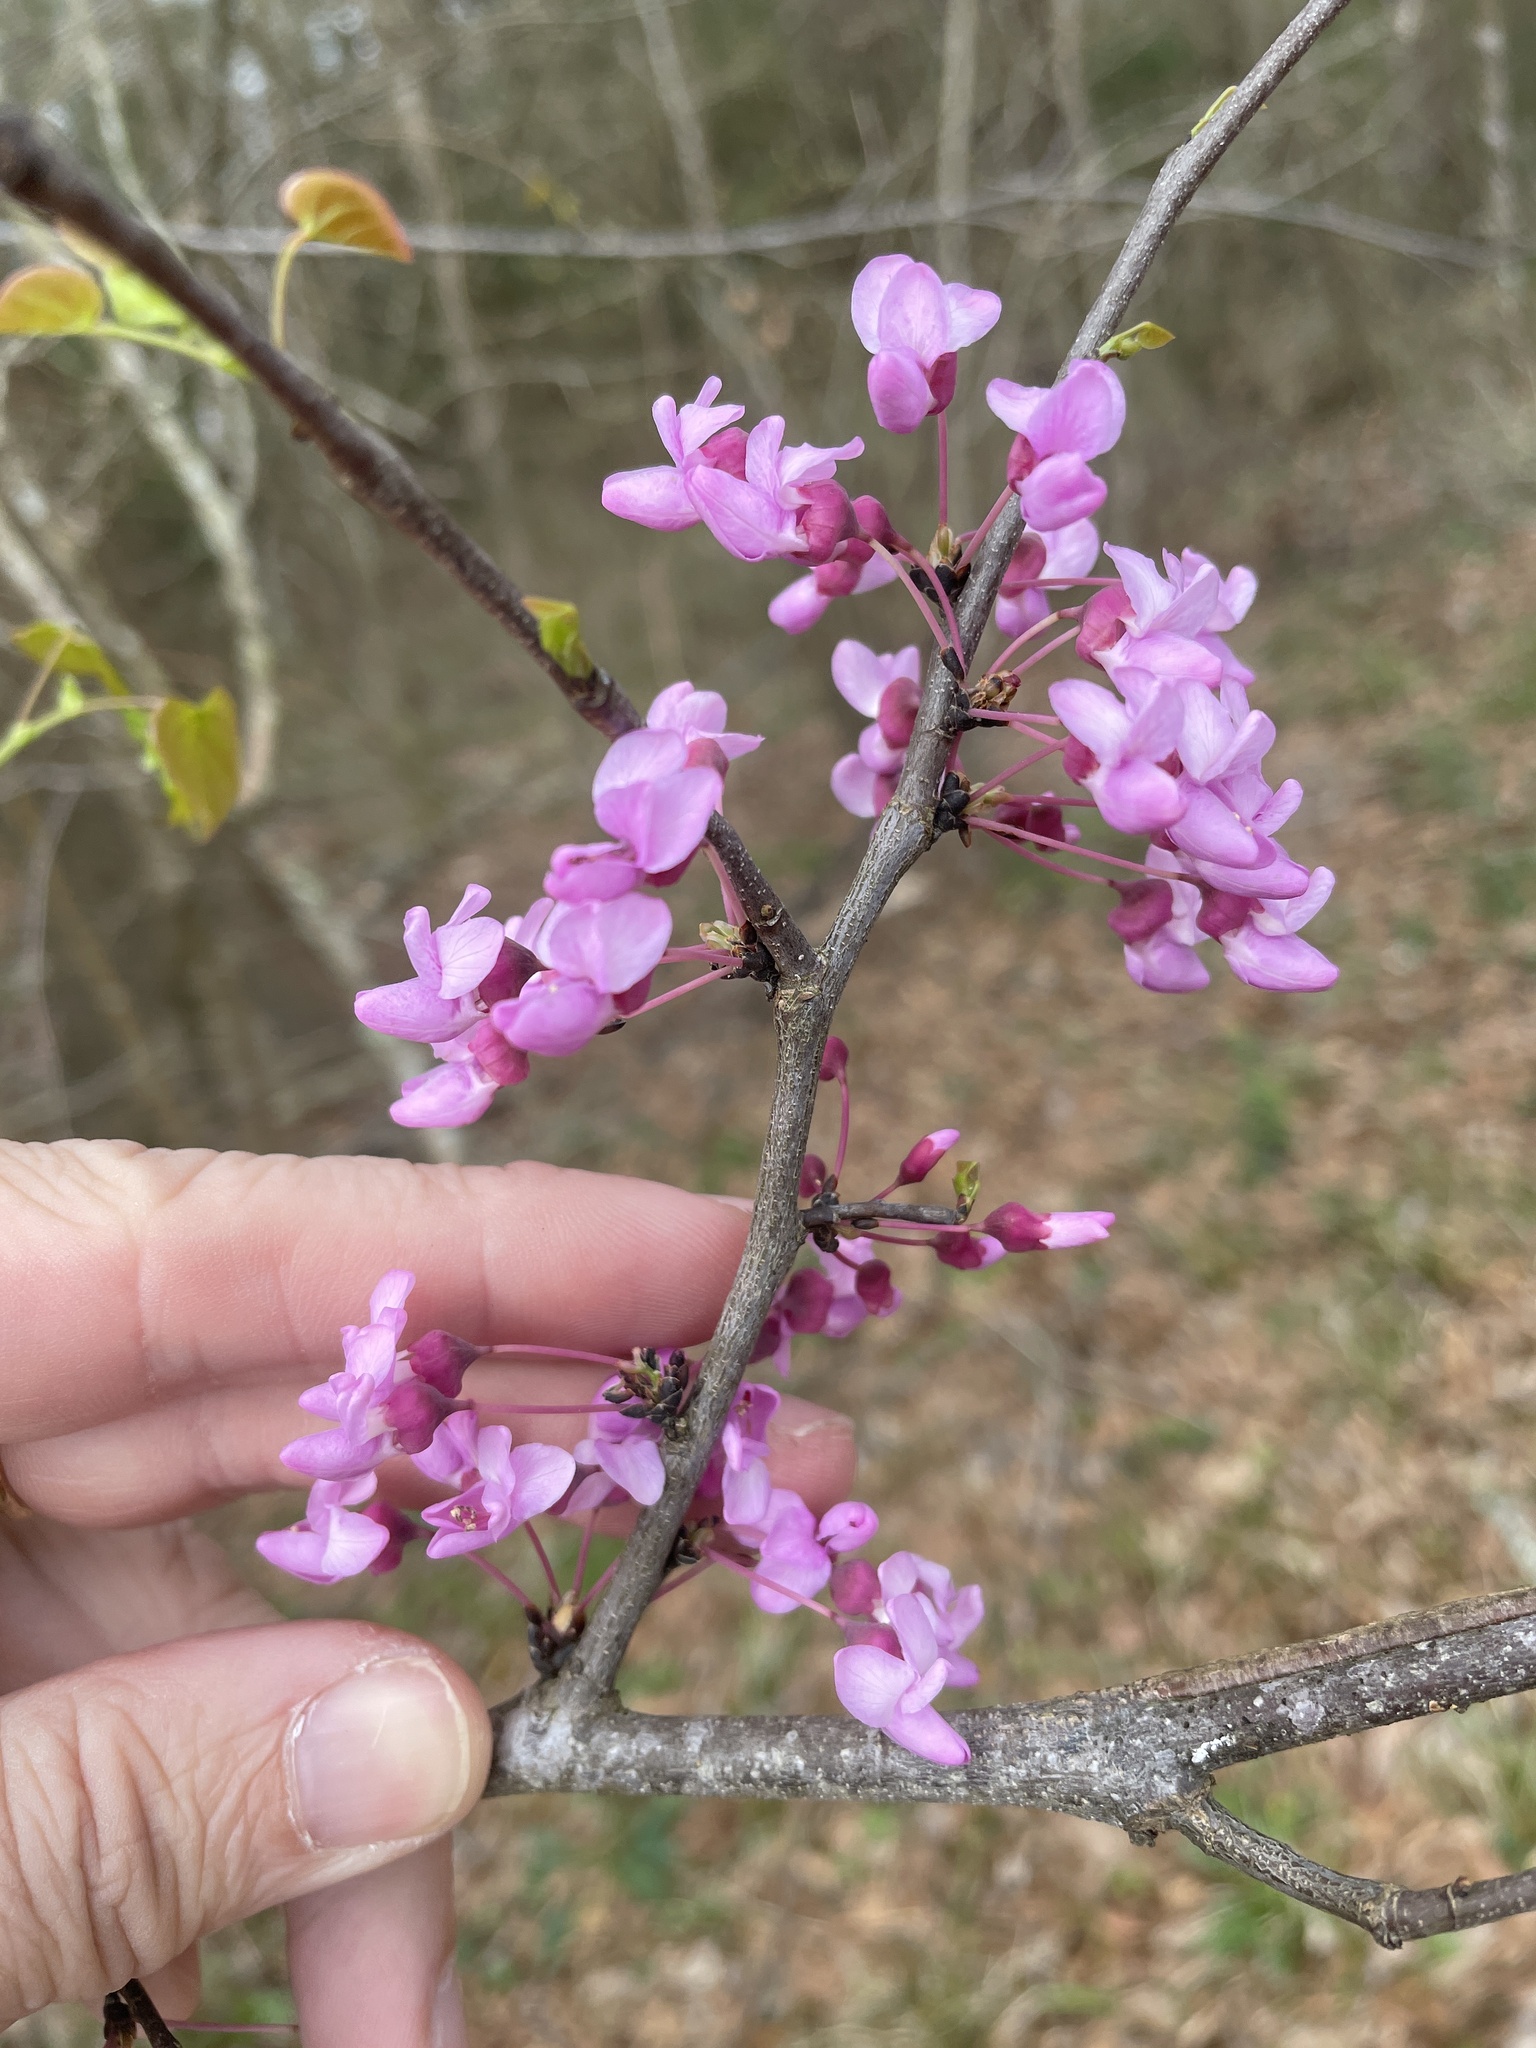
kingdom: Plantae
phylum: Tracheophyta
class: Magnoliopsida
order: Fabales
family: Fabaceae
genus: Cercis
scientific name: Cercis canadensis
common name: Eastern redbud
